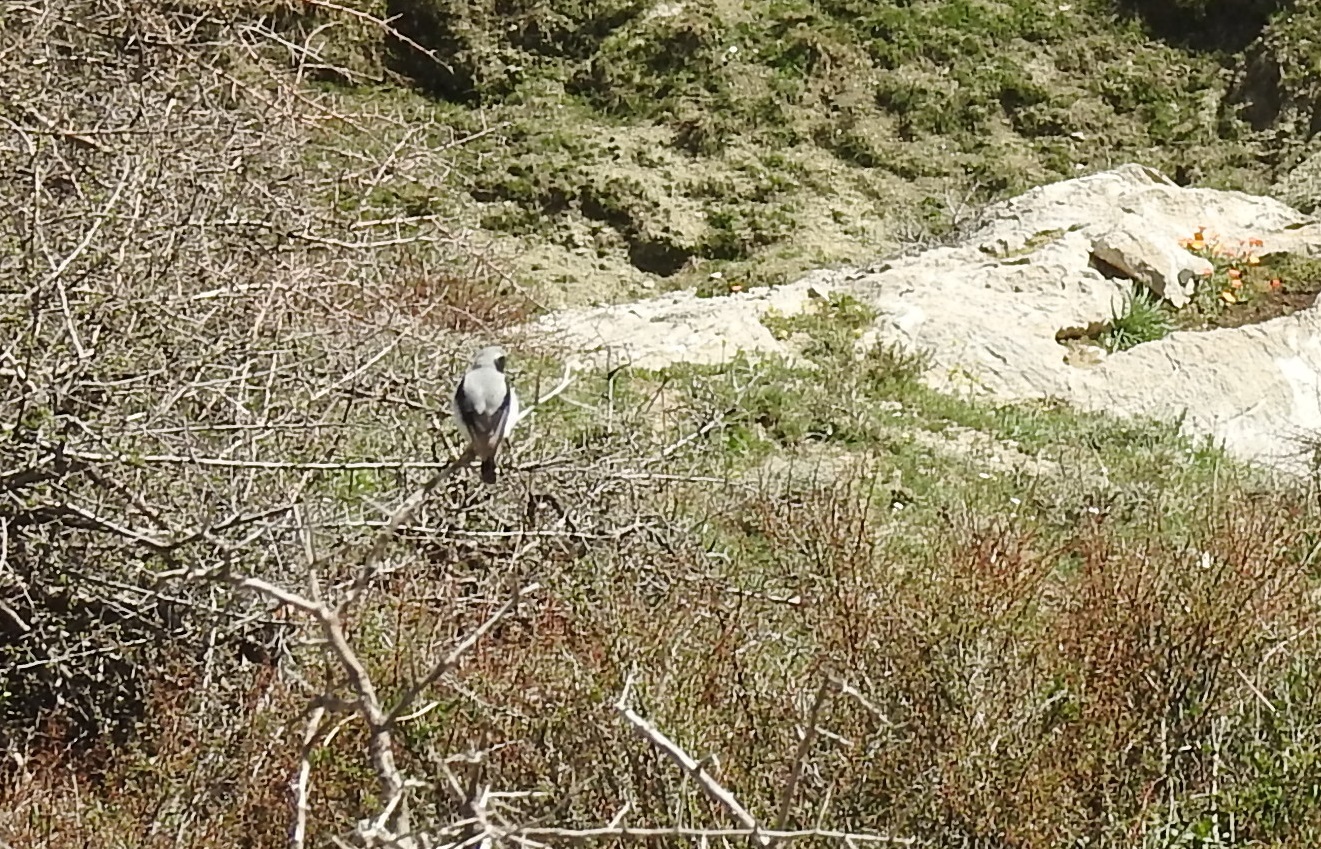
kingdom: Animalia
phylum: Chordata
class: Aves
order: Passeriformes
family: Muscicapidae
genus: Oenanthe
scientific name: Oenanthe oenanthe
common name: Northern wheatear
